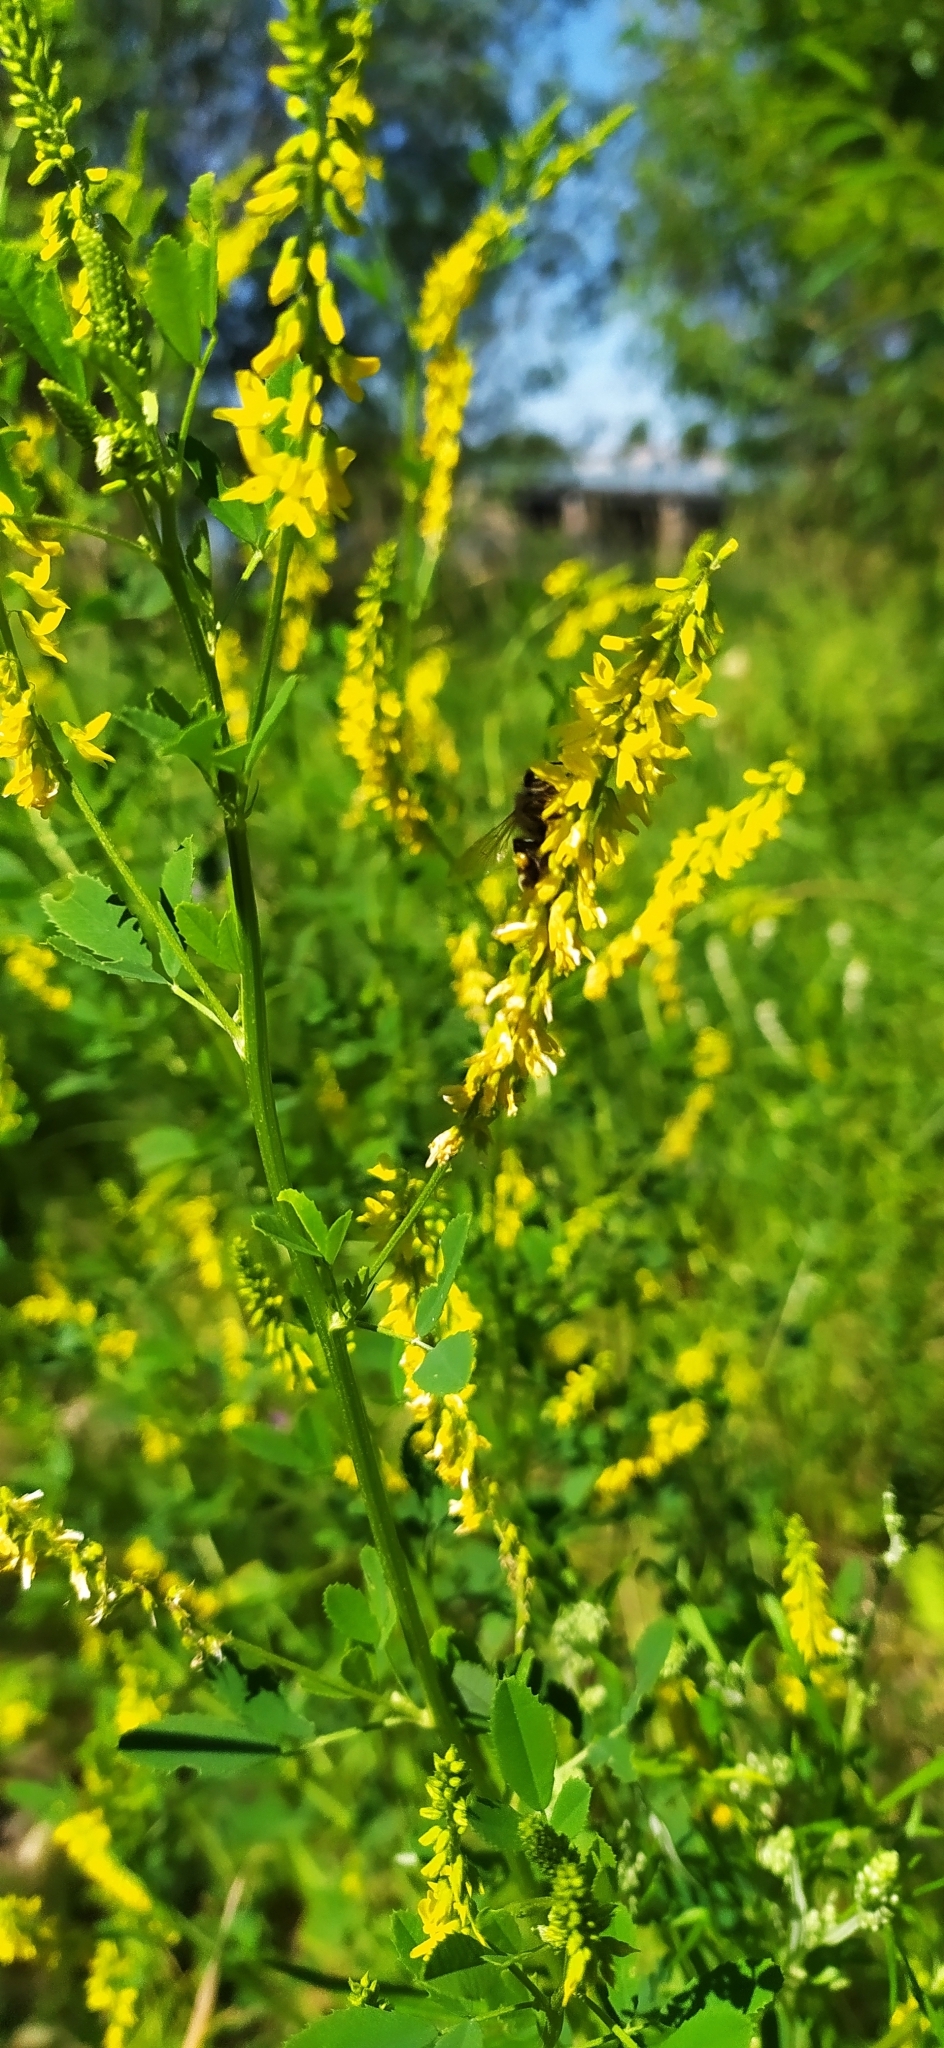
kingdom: Plantae
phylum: Tracheophyta
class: Magnoliopsida
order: Fabales
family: Fabaceae
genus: Melilotus
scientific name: Melilotus officinalis
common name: Sweetclover
